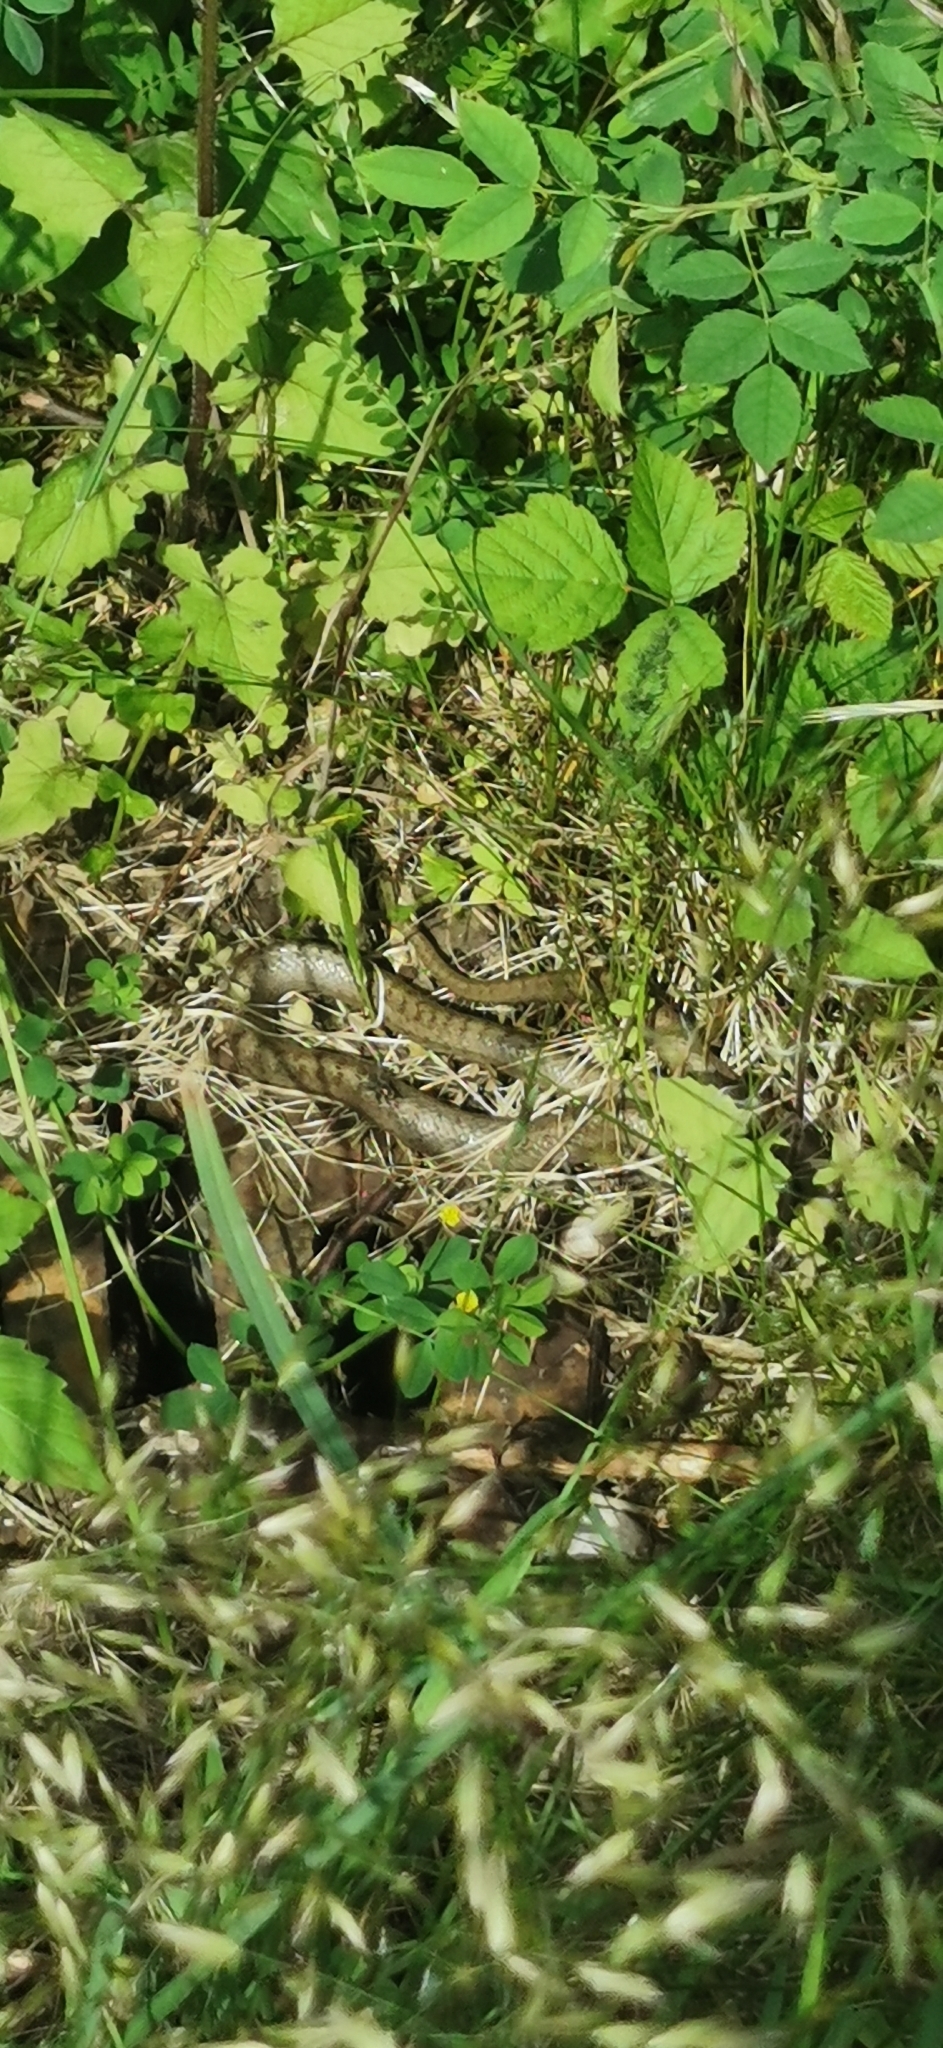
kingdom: Animalia
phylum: Chordata
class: Squamata
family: Colubridae
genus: Coronella
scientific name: Coronella austriaca
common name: Smooth snake
